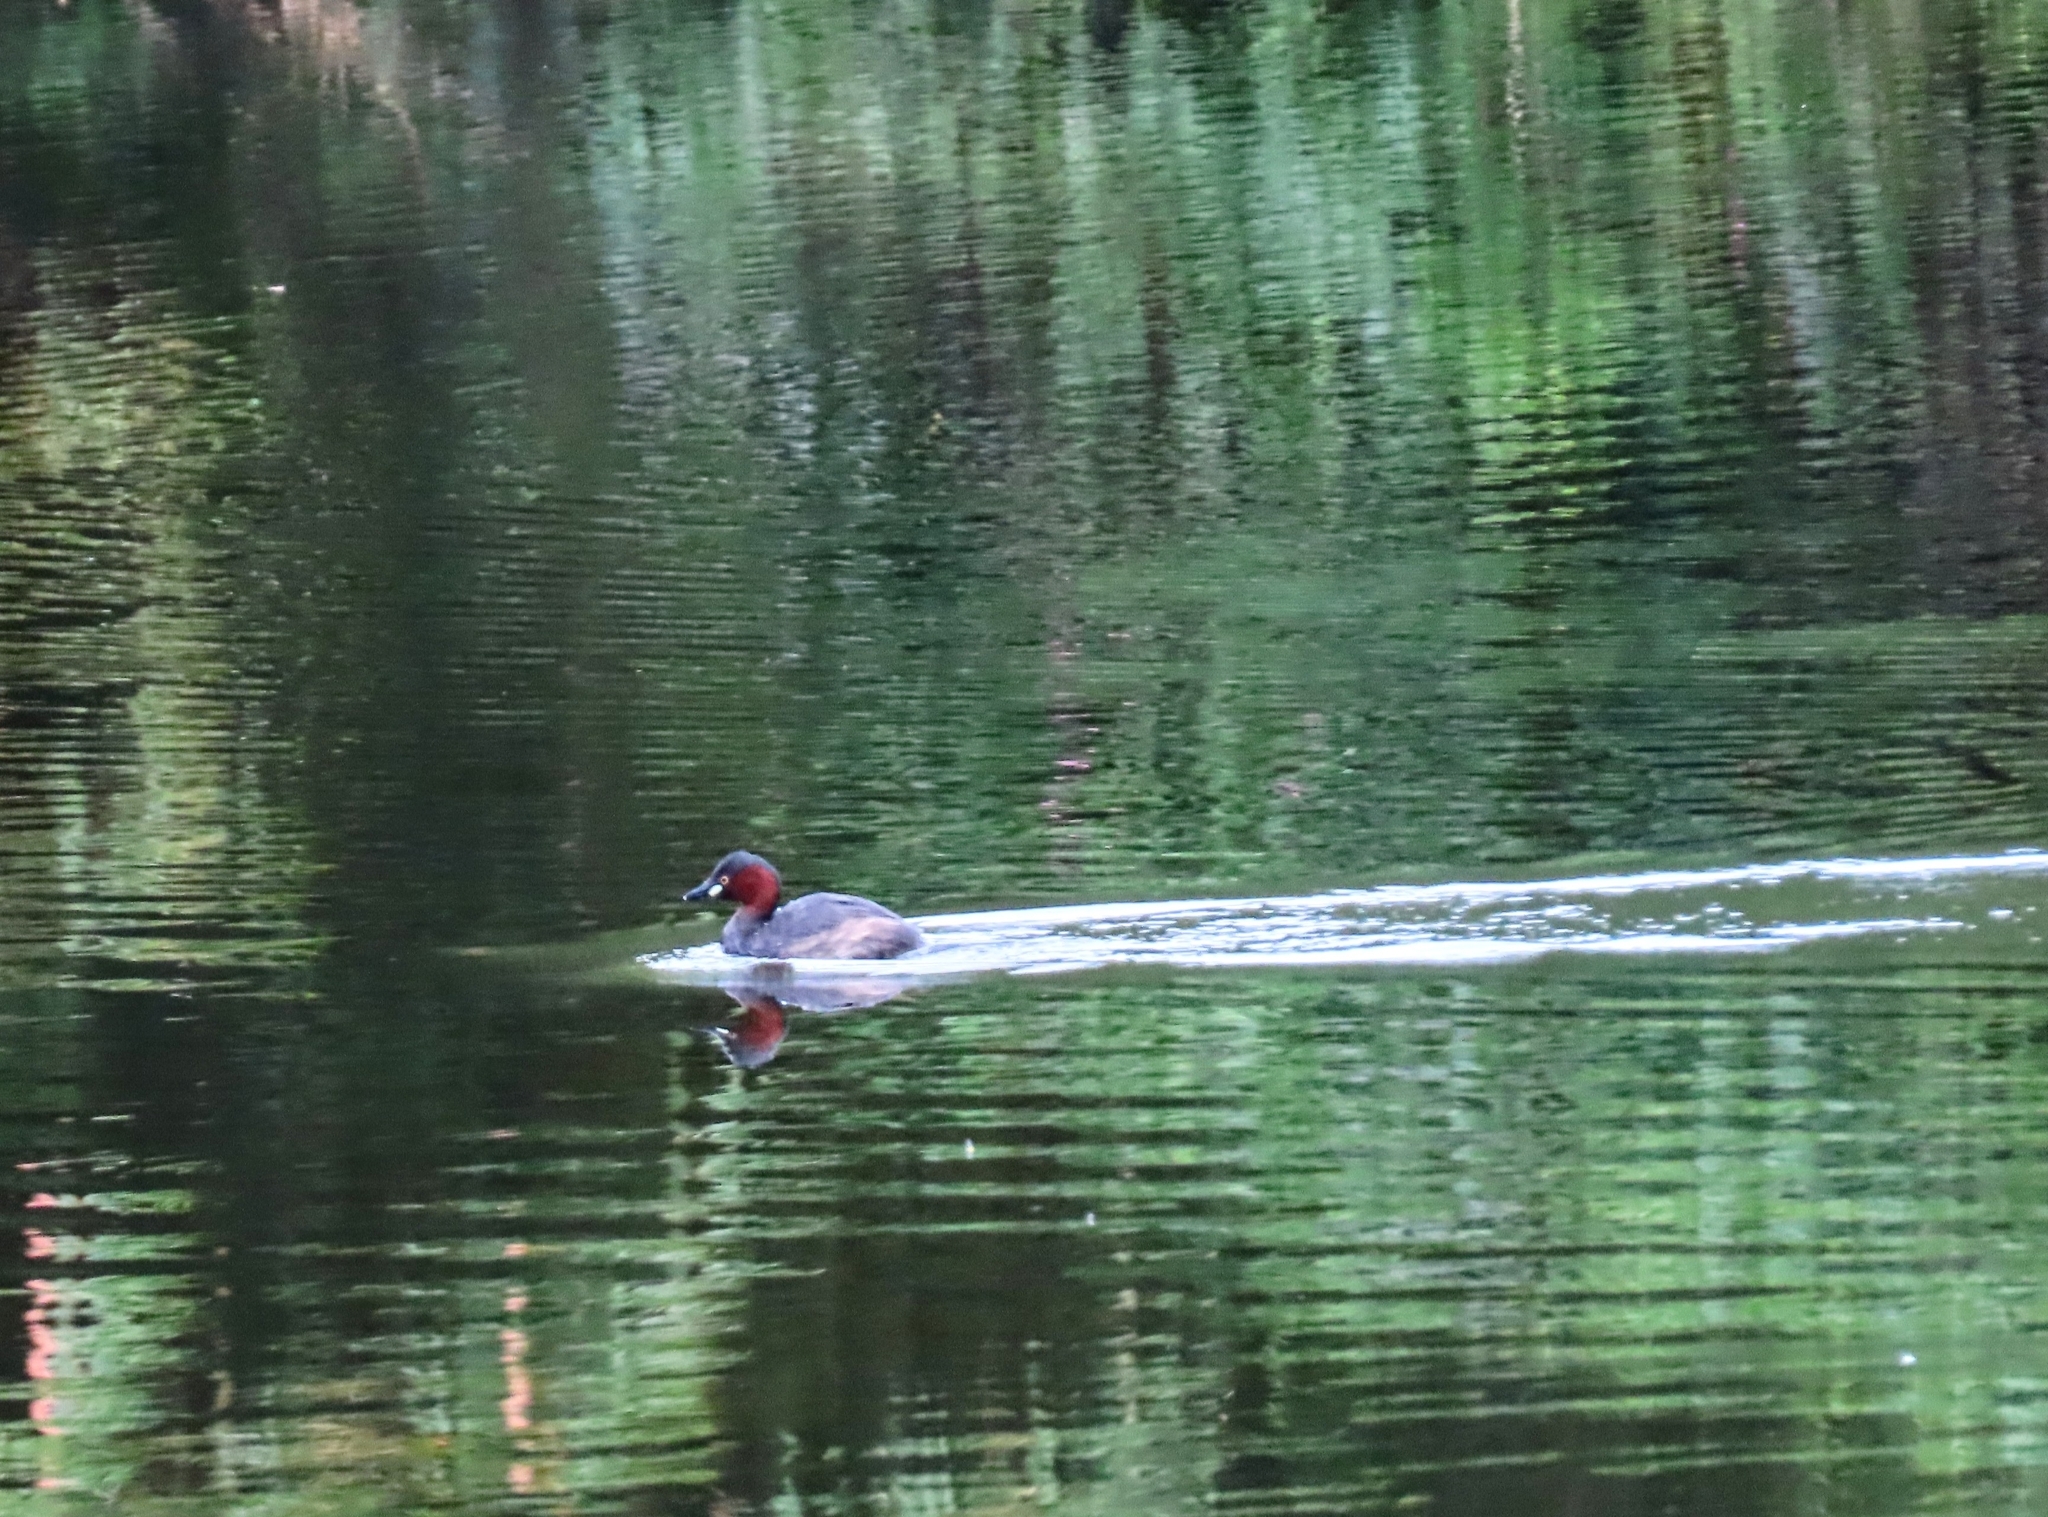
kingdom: Animalia
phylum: Chordata
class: Aves
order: Podicipediformes
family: Podicipedidae
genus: Tachybaptus
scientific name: Tachybaptus ruficollis
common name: Little grebe
